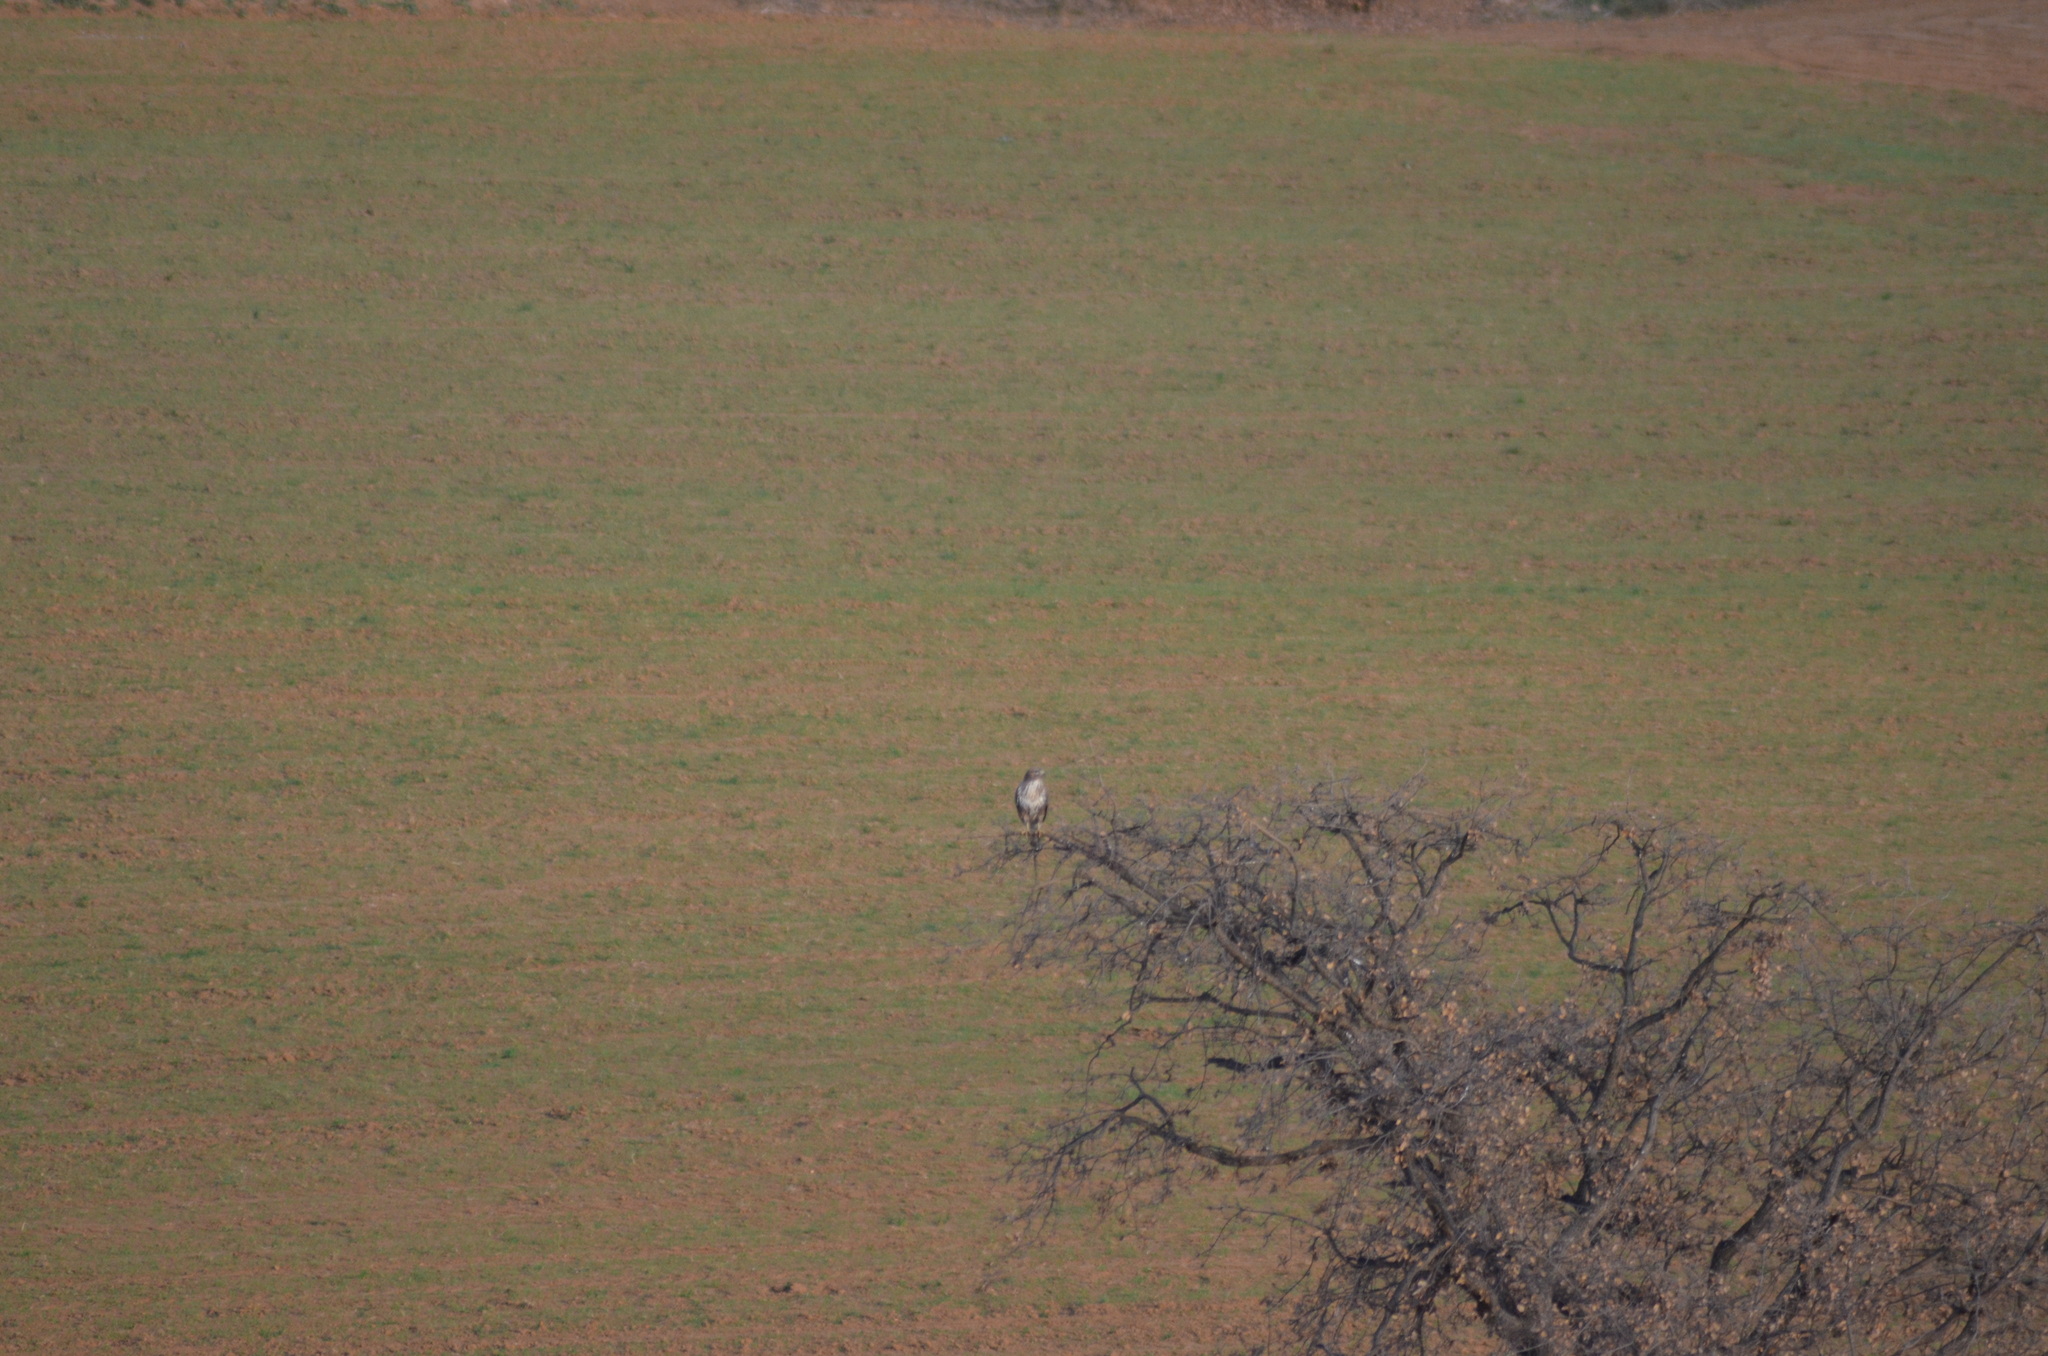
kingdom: Animalia
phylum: Chordata
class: Aves
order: Accipitriformes
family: Accipitridae
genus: Buteo
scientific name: Buteo buteo
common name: Common buzzard
